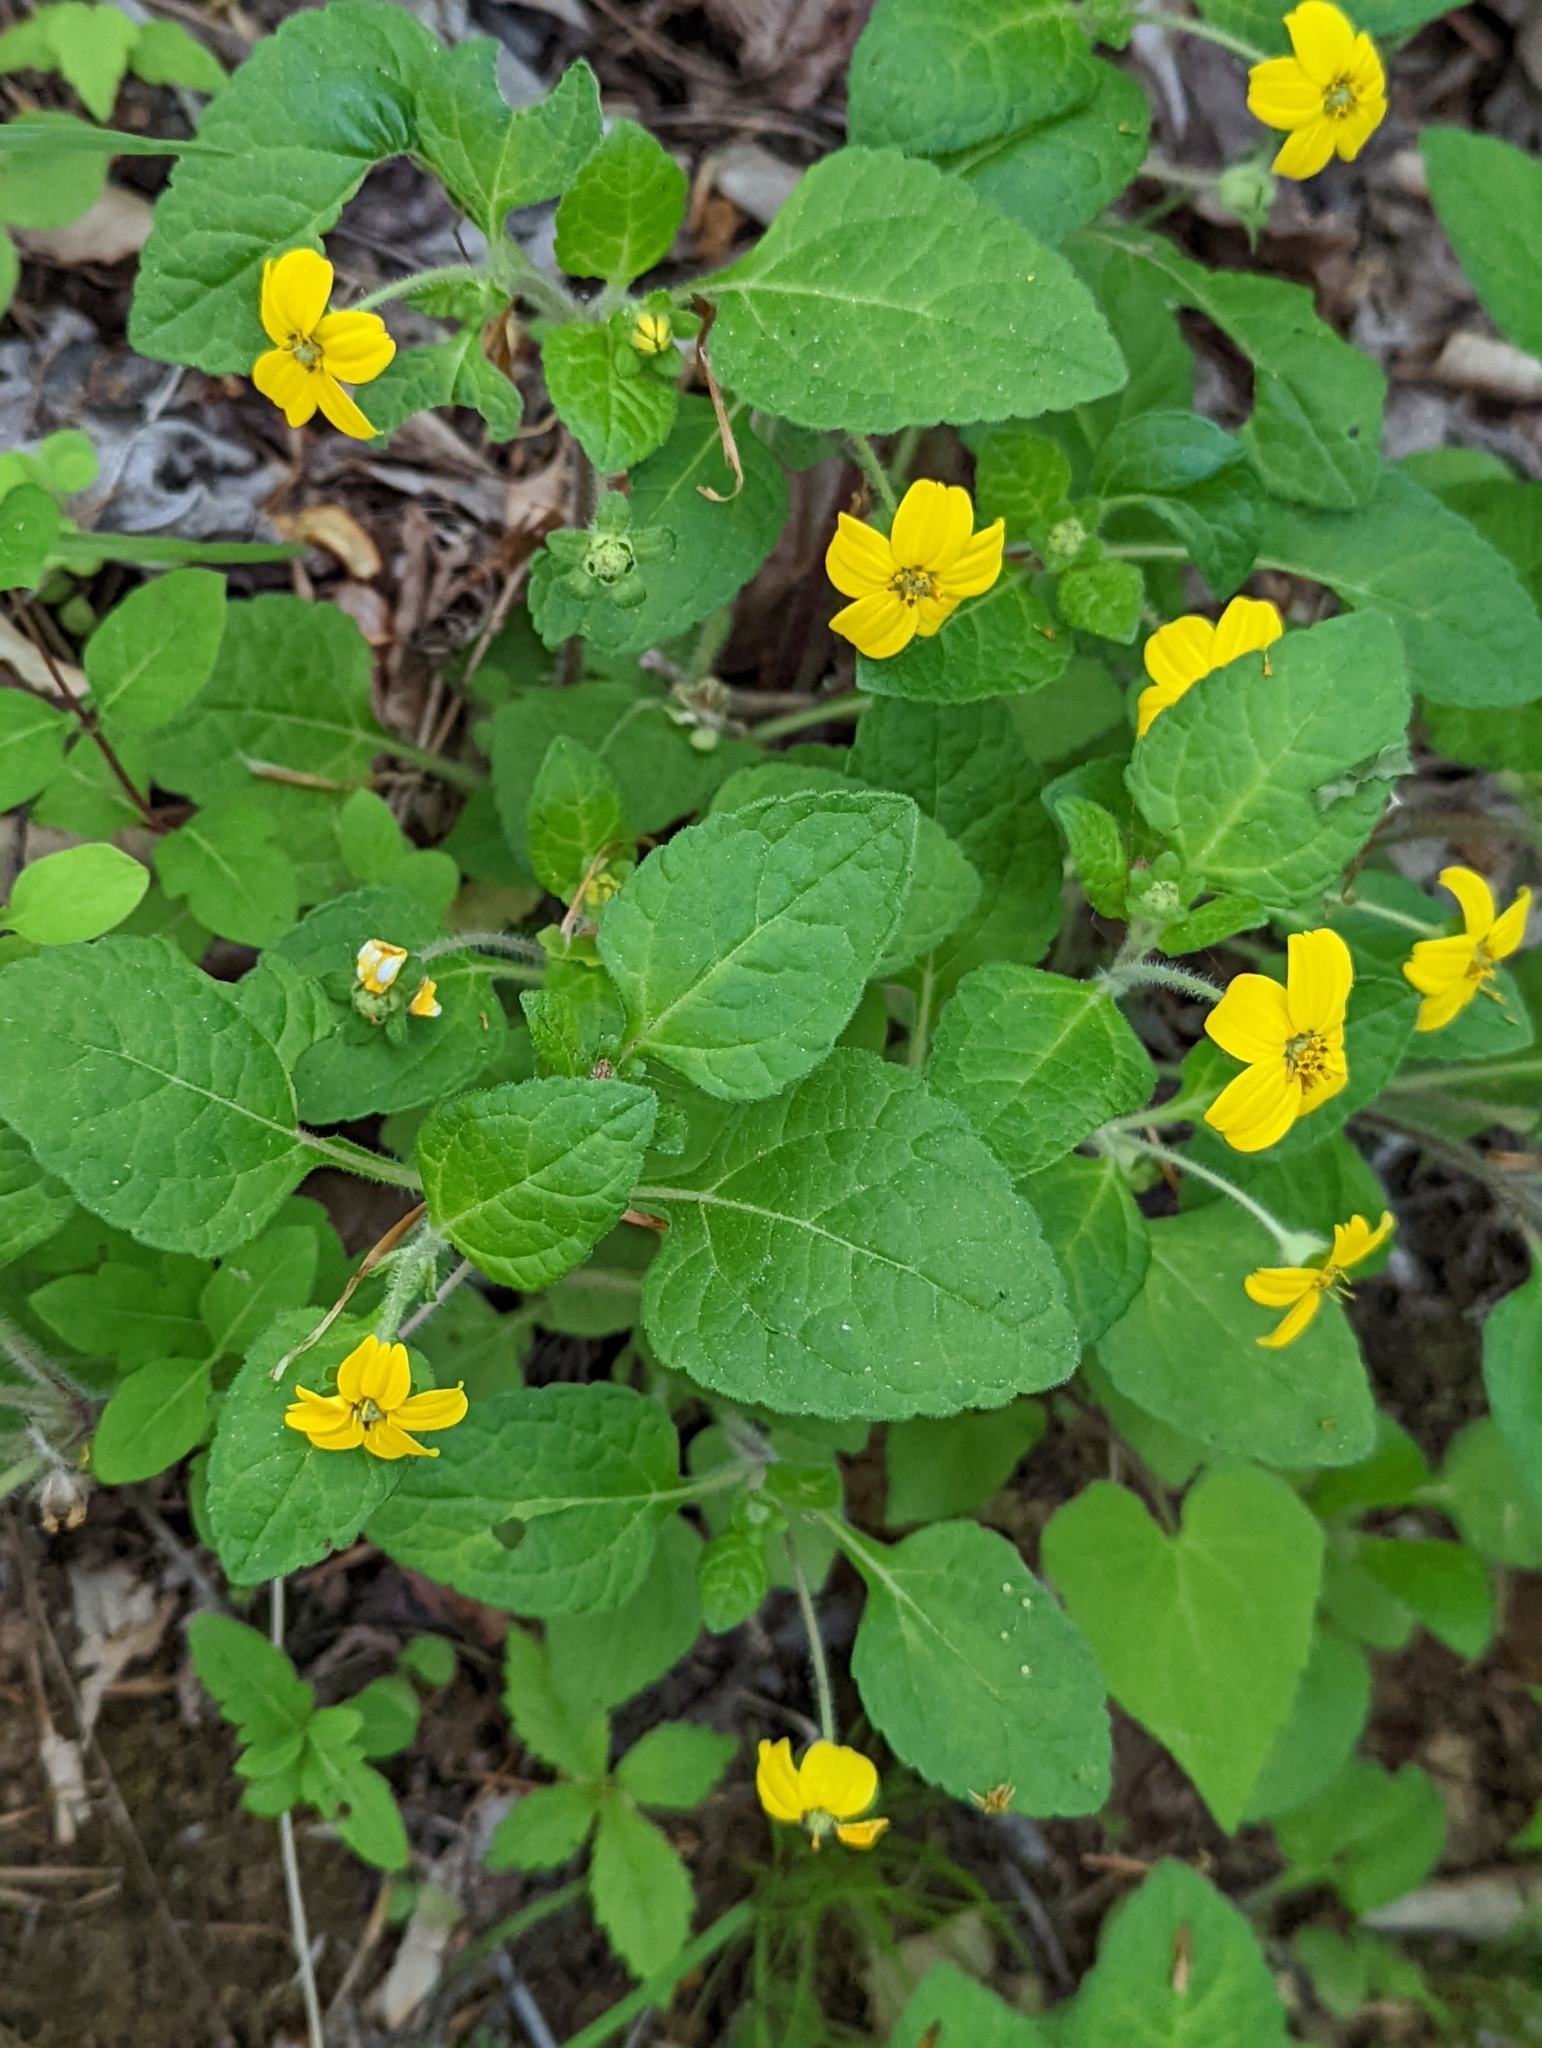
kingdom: Plantae
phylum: Tracheophyta
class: Magnoliopsida
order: Asterales
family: Asteraceae
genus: Chrysogonum
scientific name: Chrysogonum virginianum
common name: Golden-knee
